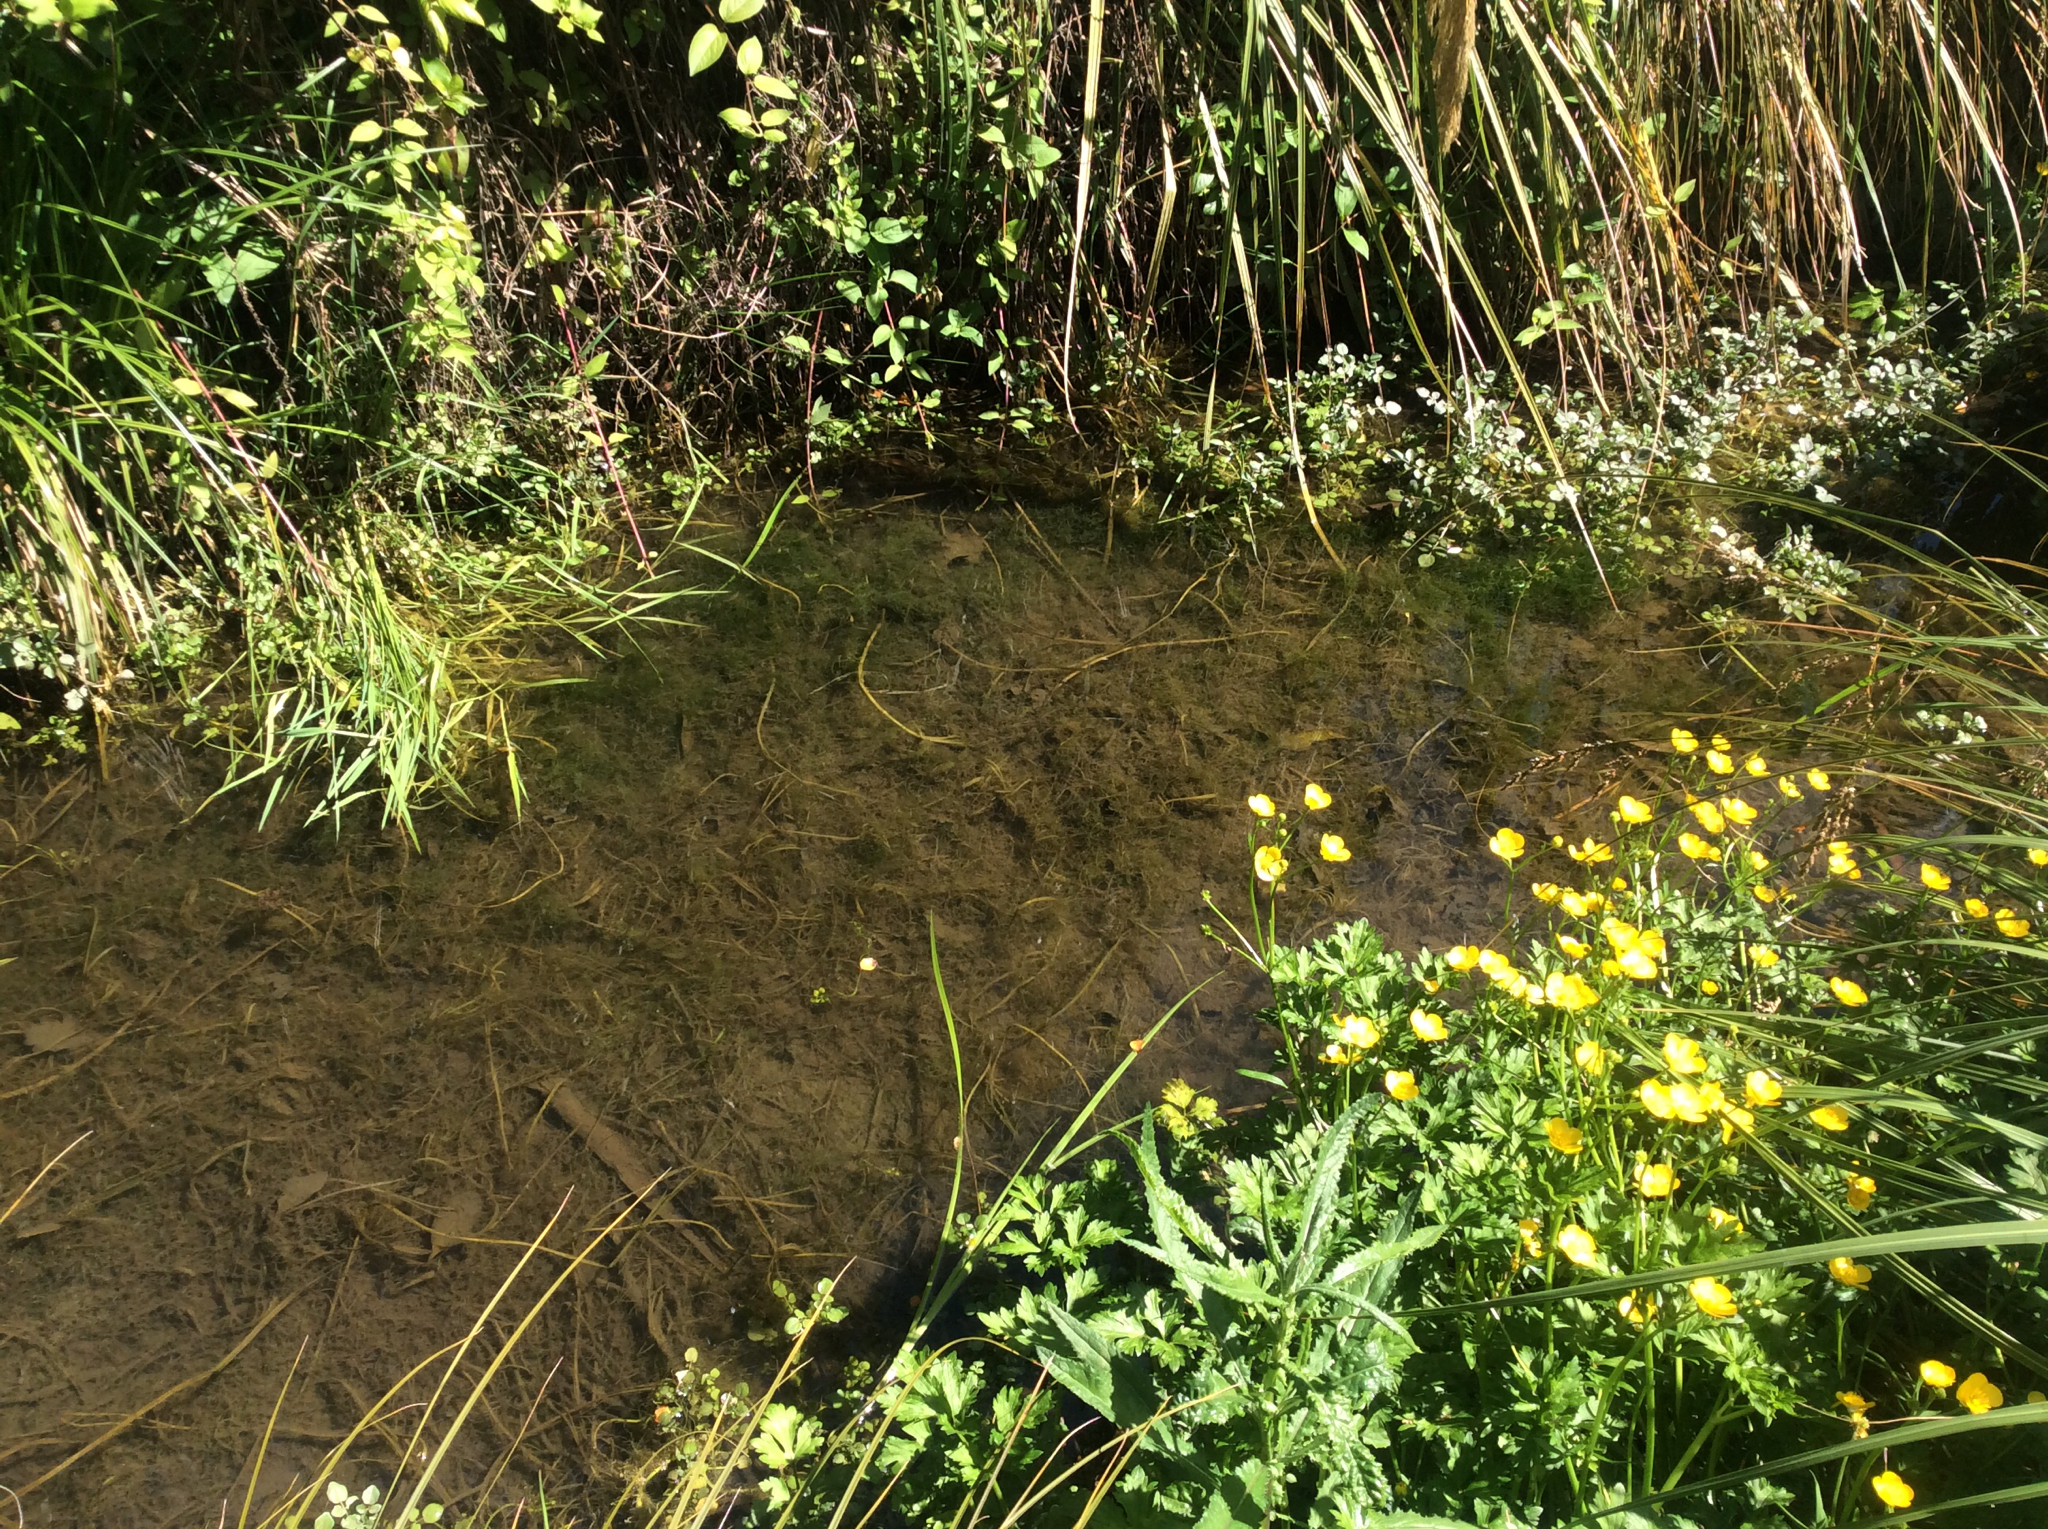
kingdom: Animalia
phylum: Chordata
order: Osmeriformes
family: Galaxiidae
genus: Galaxias
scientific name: Galaxias maculatus
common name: Common galaxias
